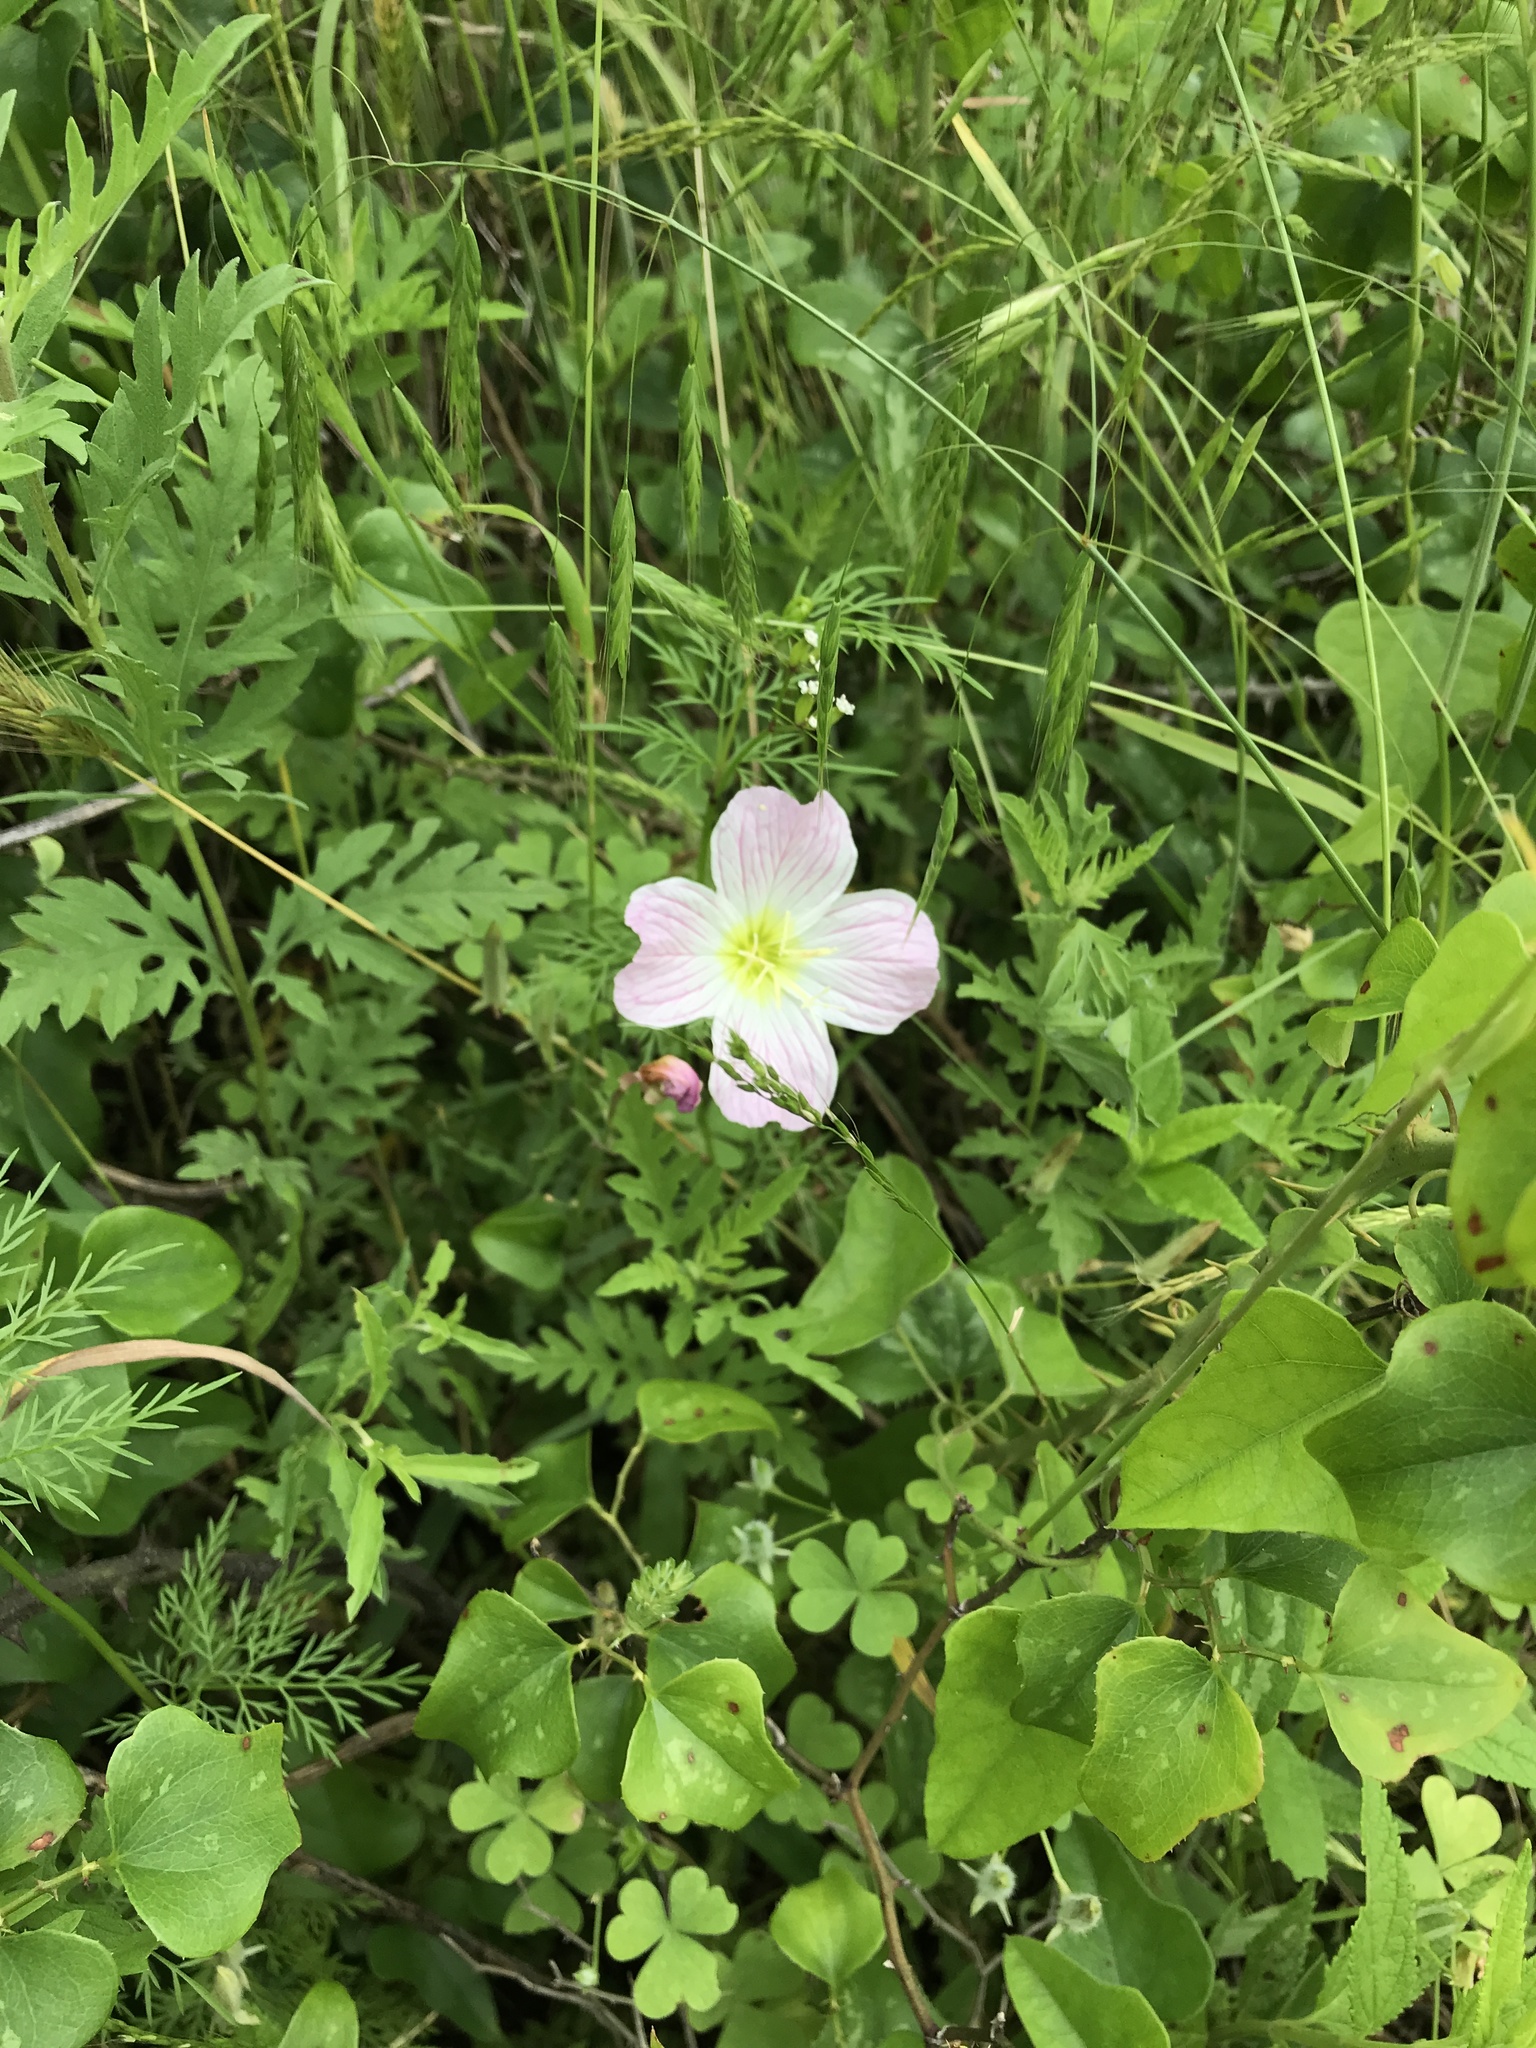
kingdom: Plantae
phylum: Tracheophyta
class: Magnoliopsida
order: Myrtales
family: Onagraceae
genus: Oenothera
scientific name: Oenothera speciosa
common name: White evening-primrose
